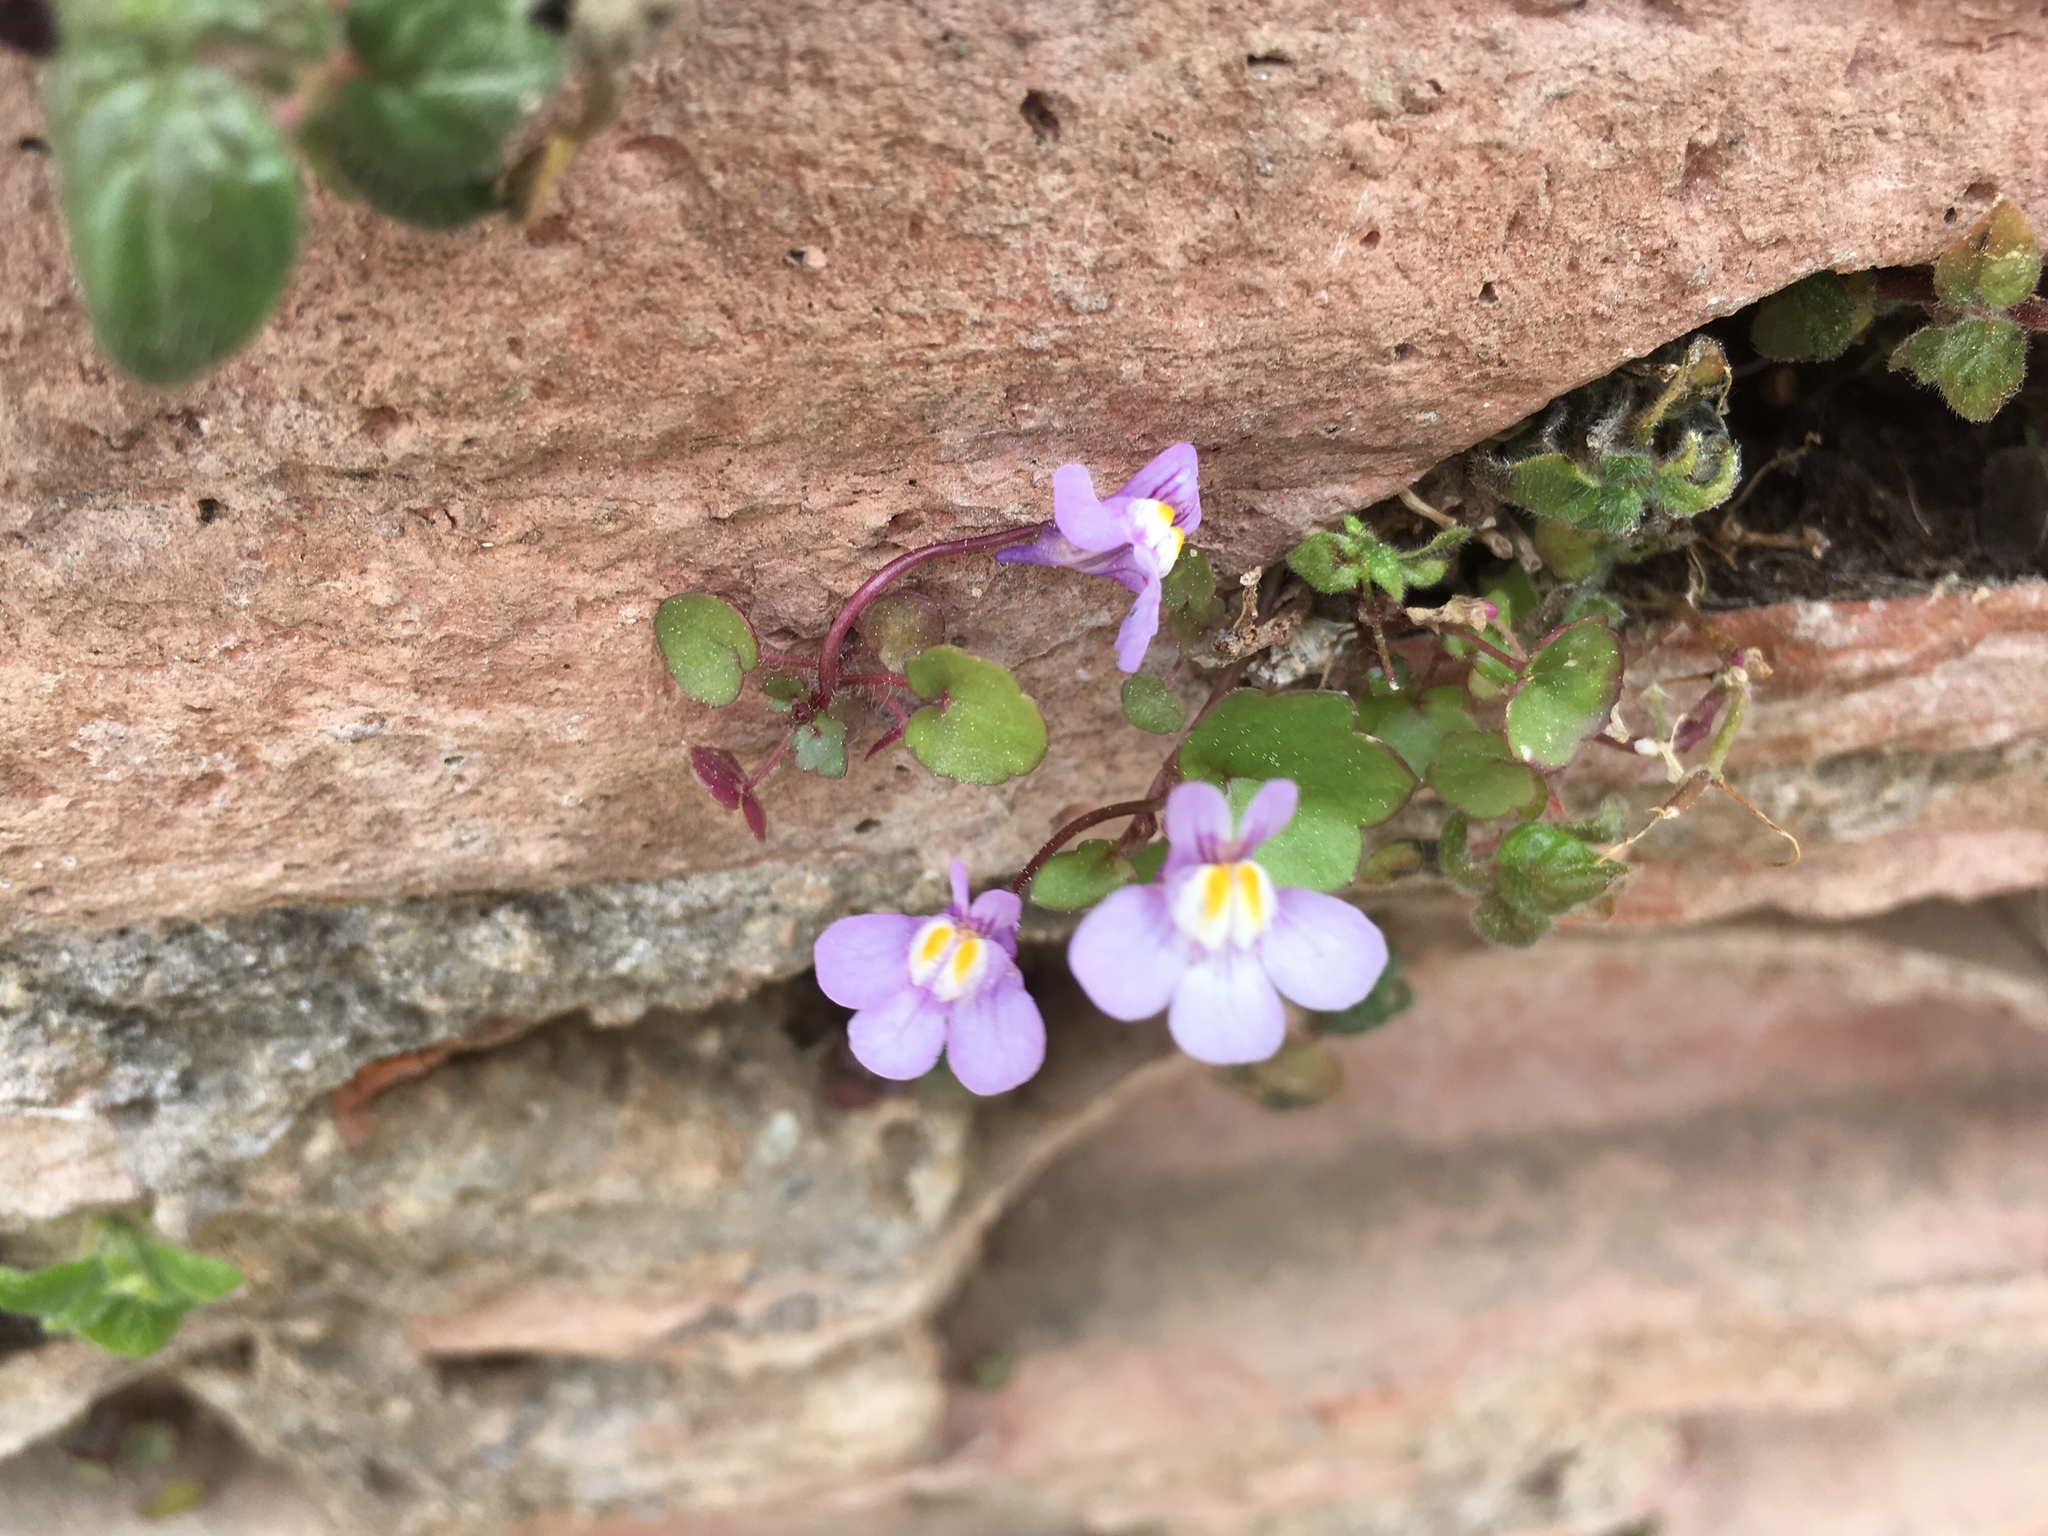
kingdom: Plantae
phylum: Tracheophyta
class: Magnoliopsida
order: Lamiales
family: Plantaginaceae
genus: Cymbalaria
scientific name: Cymbalaria muralis
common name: Ivy-leaved toadflax
